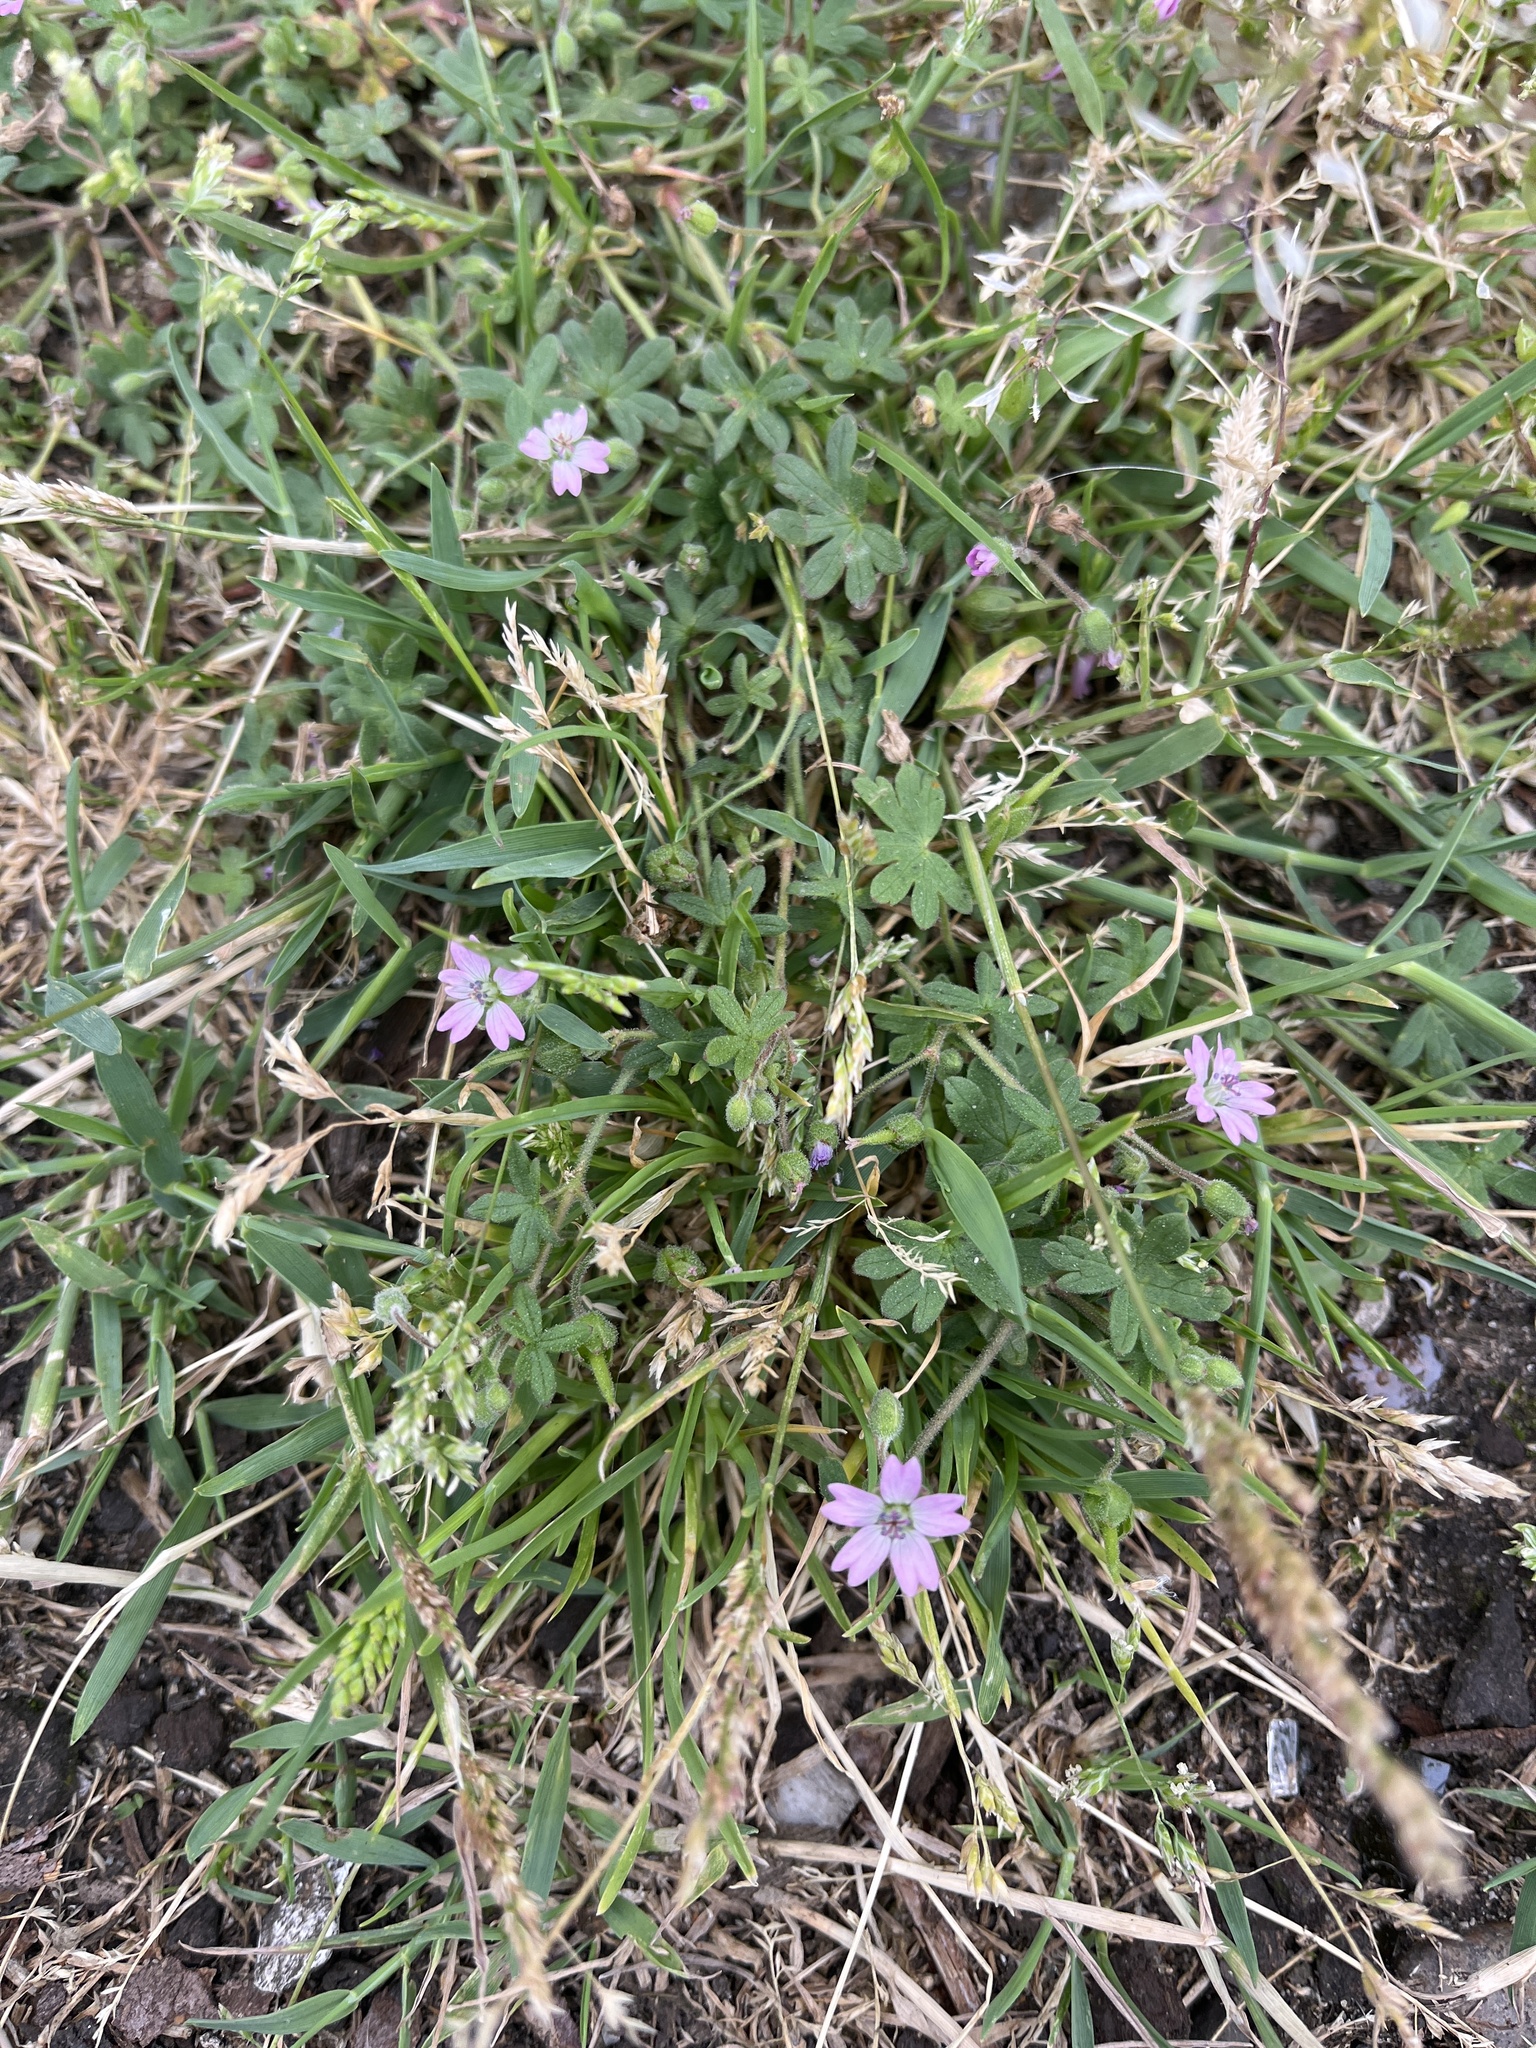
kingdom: Plantae
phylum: Tracheophyta
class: Magnoliopsida
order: Geraniales
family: Geraniaceae
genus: Geranium
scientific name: Geranium molle
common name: Dove's-foot crane's-bill
